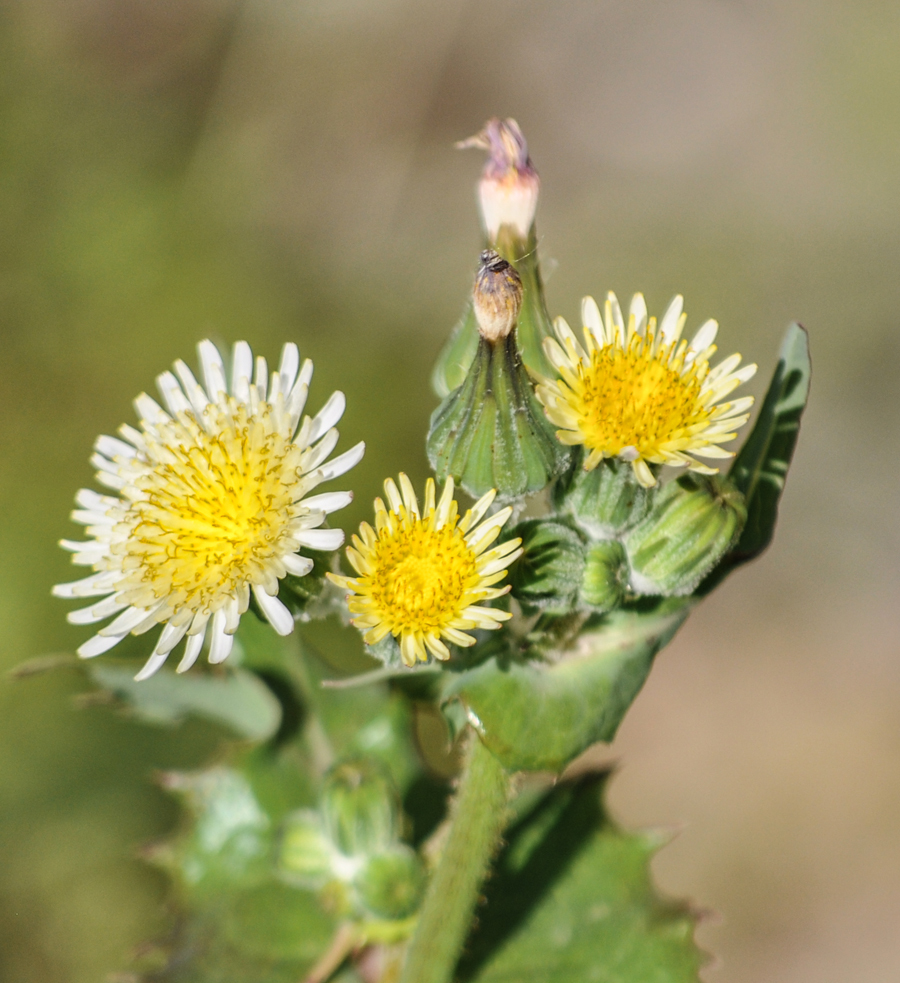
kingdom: Plantae
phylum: Tracheophyta
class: Magnoliopsida
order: Asterales
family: Asteraceae
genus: Sonchus
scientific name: Sonchus asper
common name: Prickly sow-thistle
